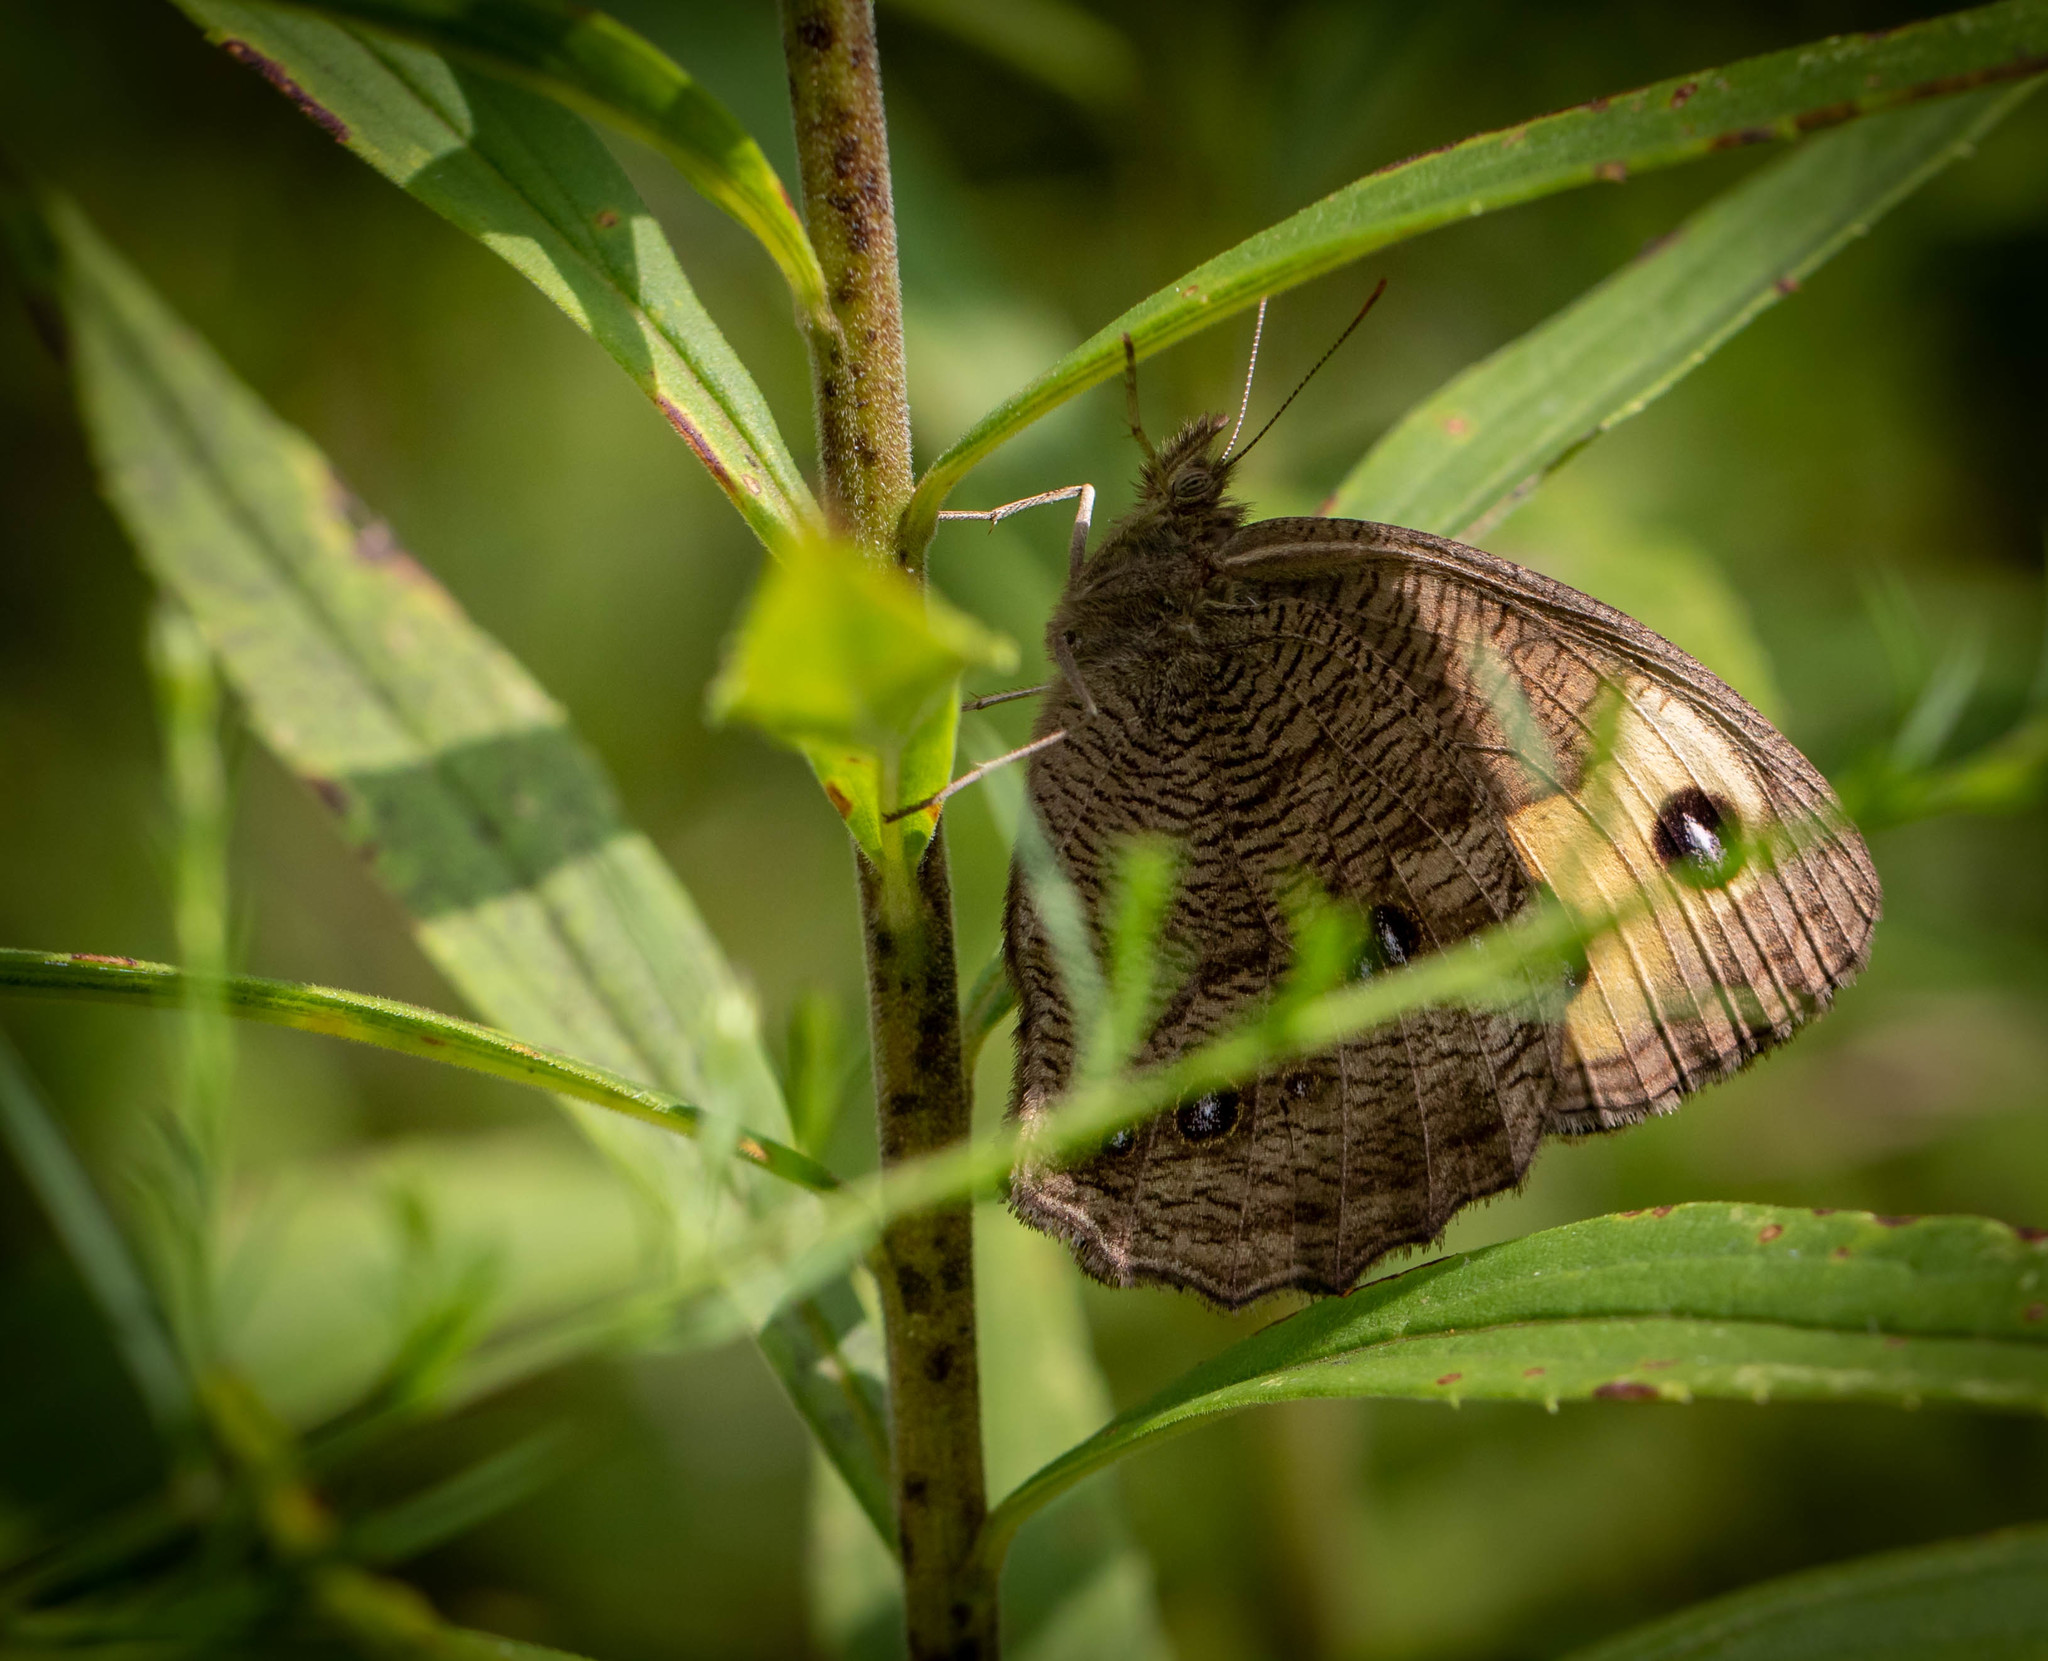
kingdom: Animalia
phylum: Arthropoda
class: Insecta
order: Lepidoptera
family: Nymphalidae
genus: Cercyonis
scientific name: Cercyonis pegala
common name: Common wood-nymph
